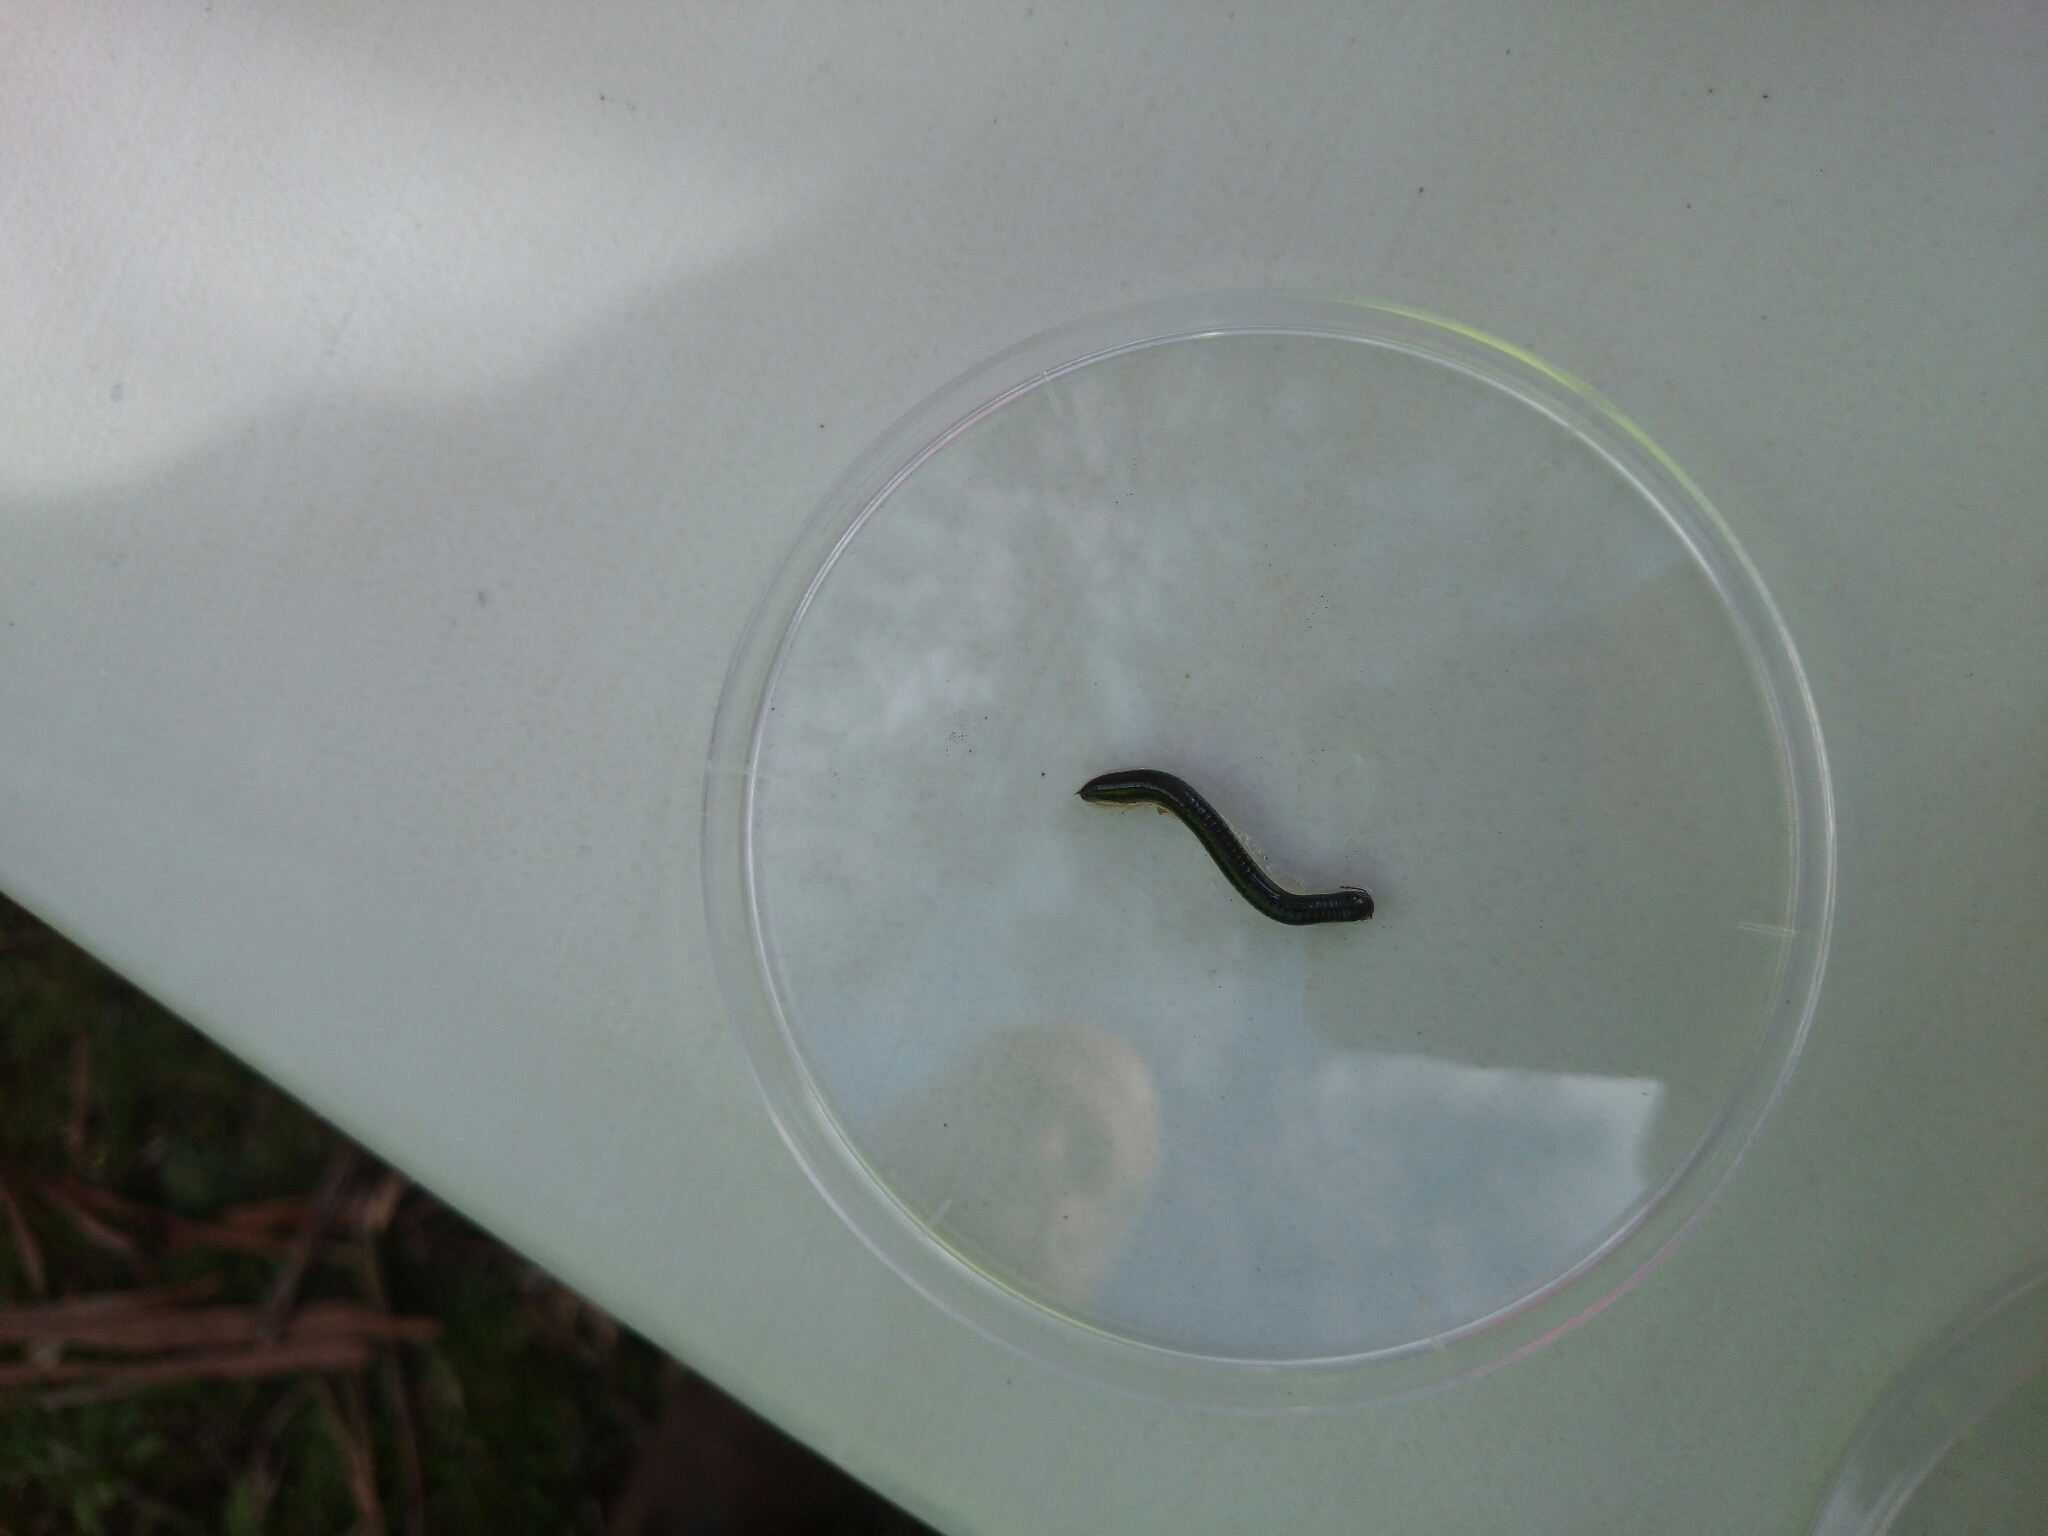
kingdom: Animalia
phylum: Arthropoda
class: Diplopoda
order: Julida
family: Julidae
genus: Ommatoiulus
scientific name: Ommatoiulus moreleti
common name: Portuguese millipede
